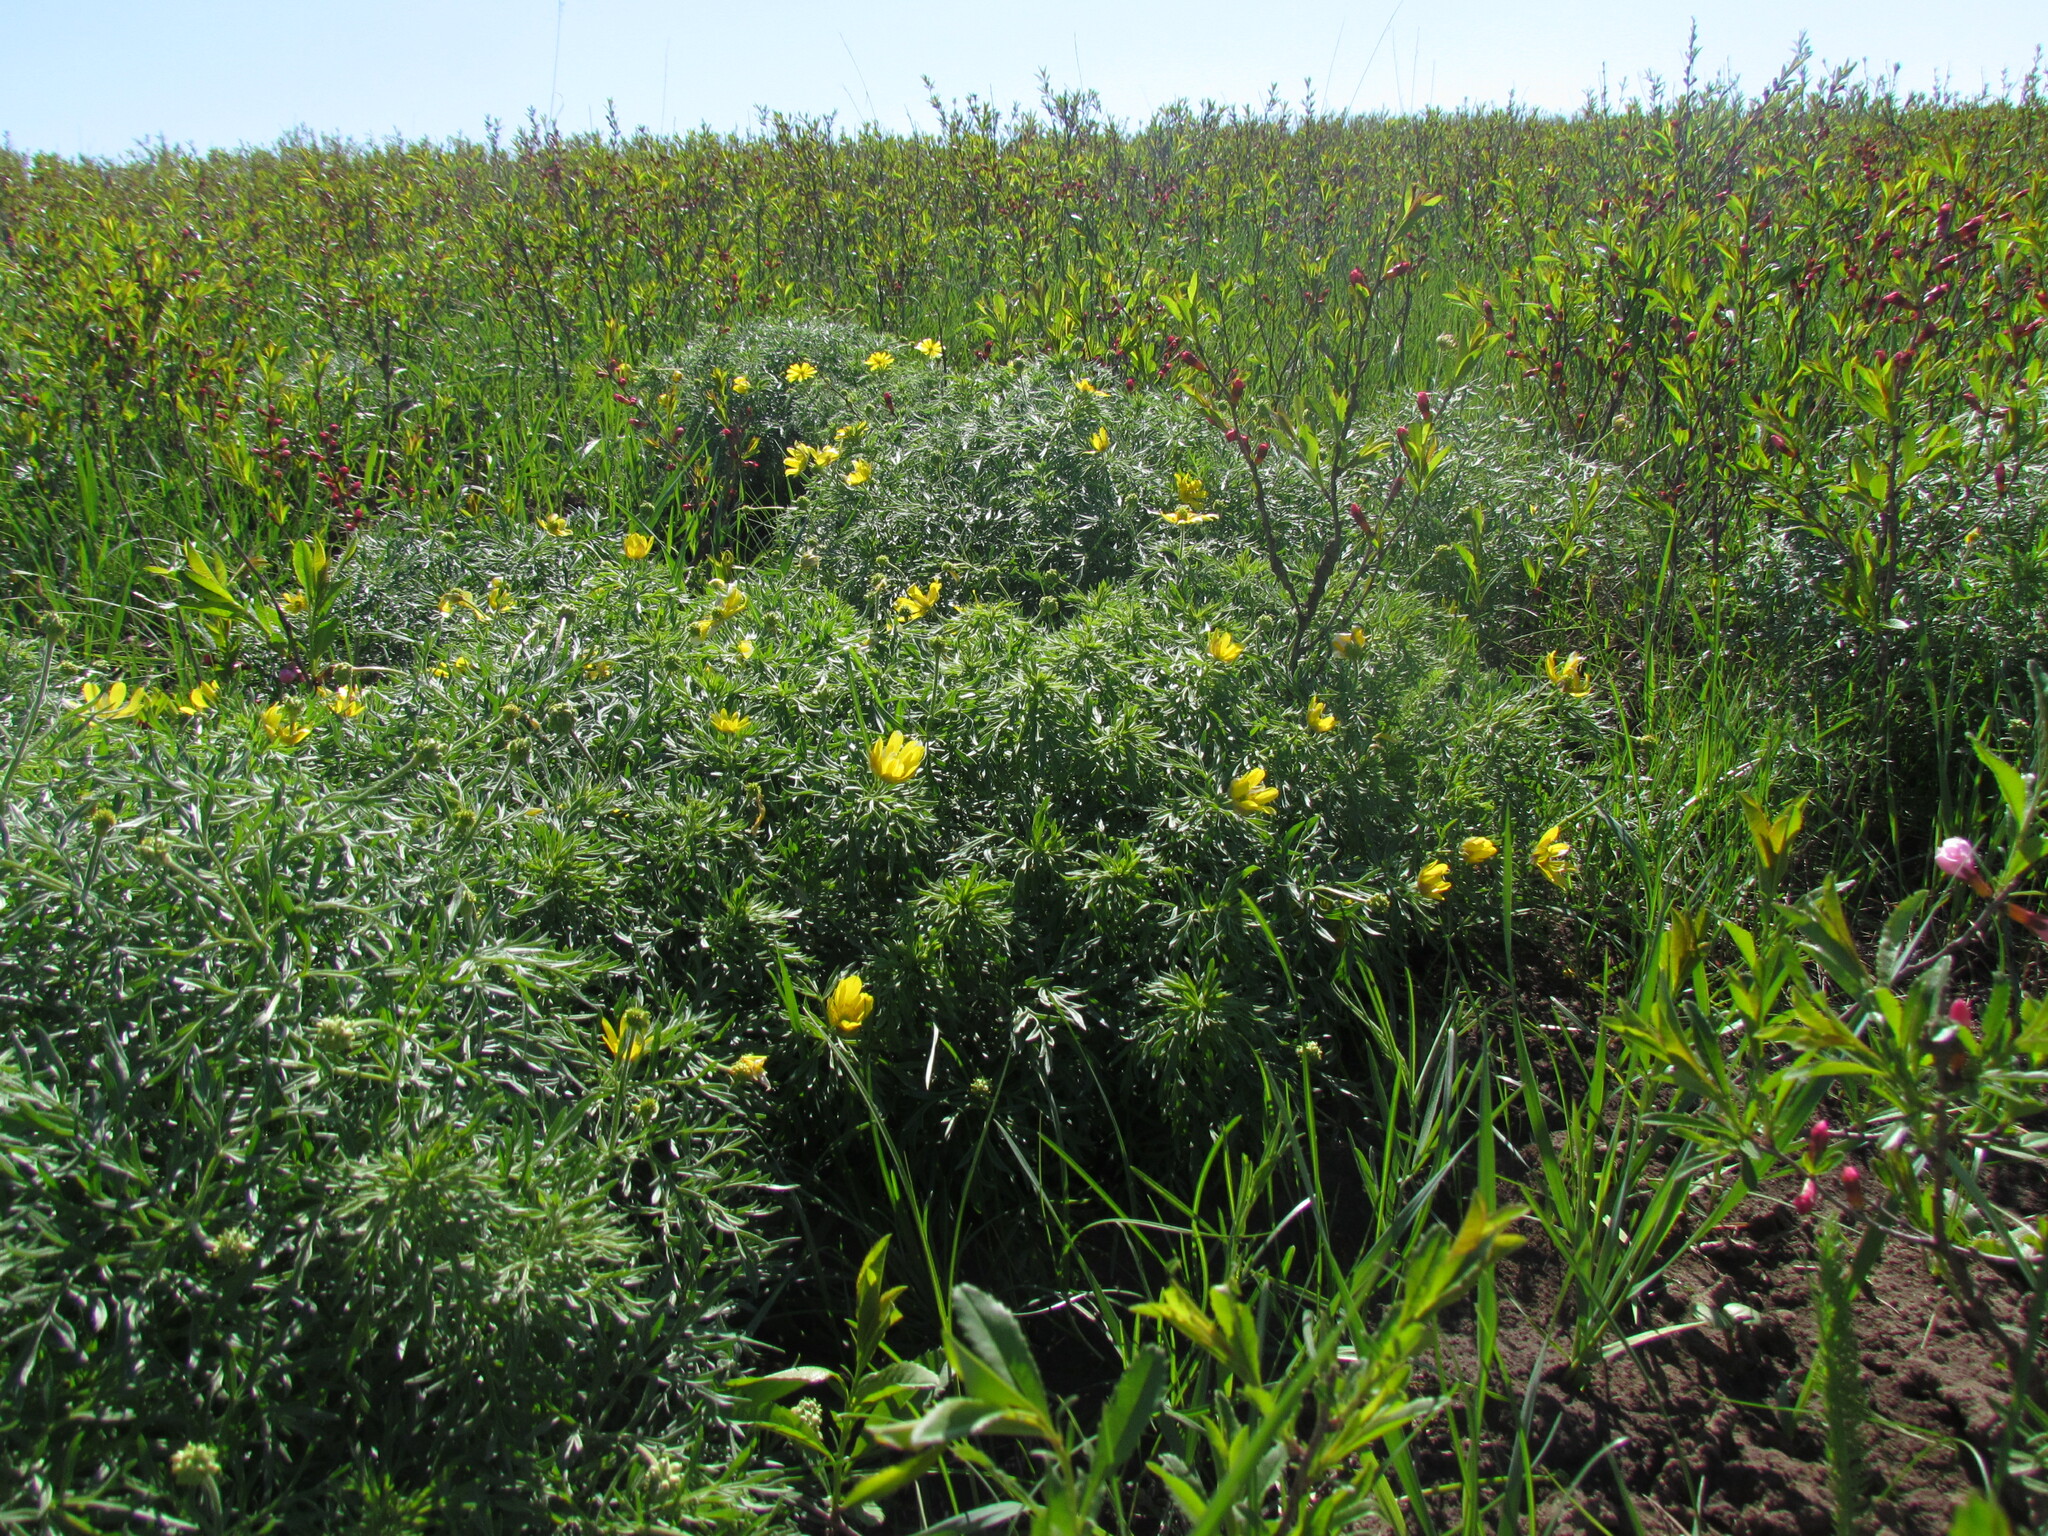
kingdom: Plantae
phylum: Tracheophyta
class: Magnoliopsida
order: Ranunculales
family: Ranunculaceae
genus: Adonis
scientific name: Adonis volgensis
